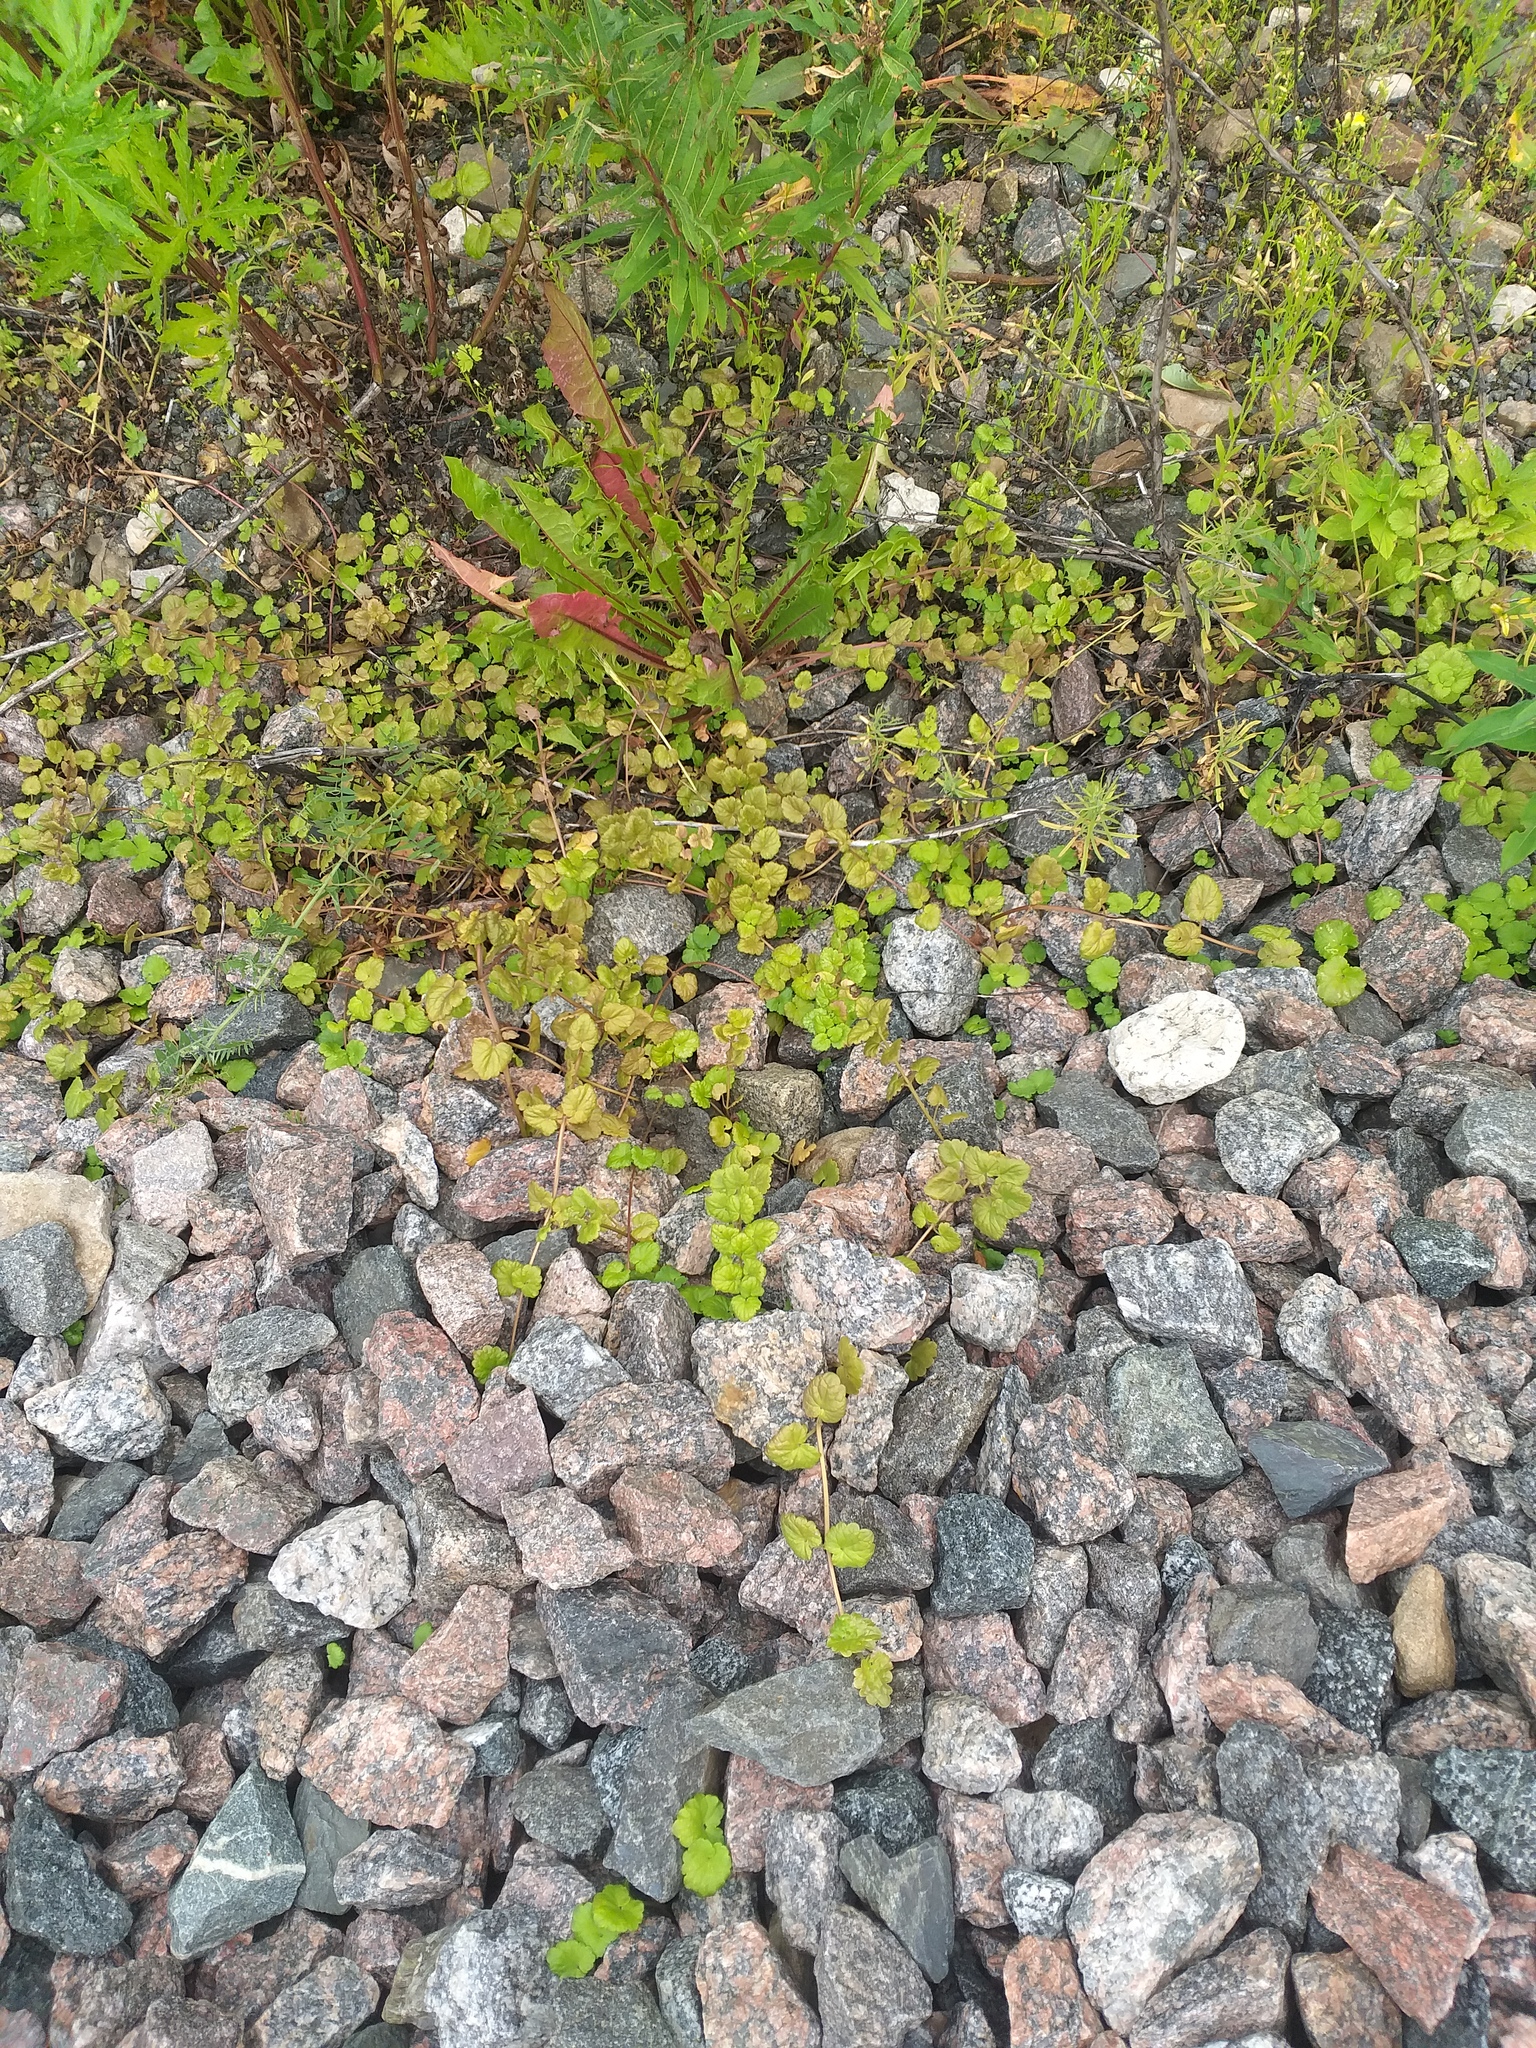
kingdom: Plantae
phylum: Tracheophyta
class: Magnoliopsida
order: Lamiales
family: Lamiaceae
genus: Glechoma
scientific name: Glechoma hederacea
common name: Ground ivy
